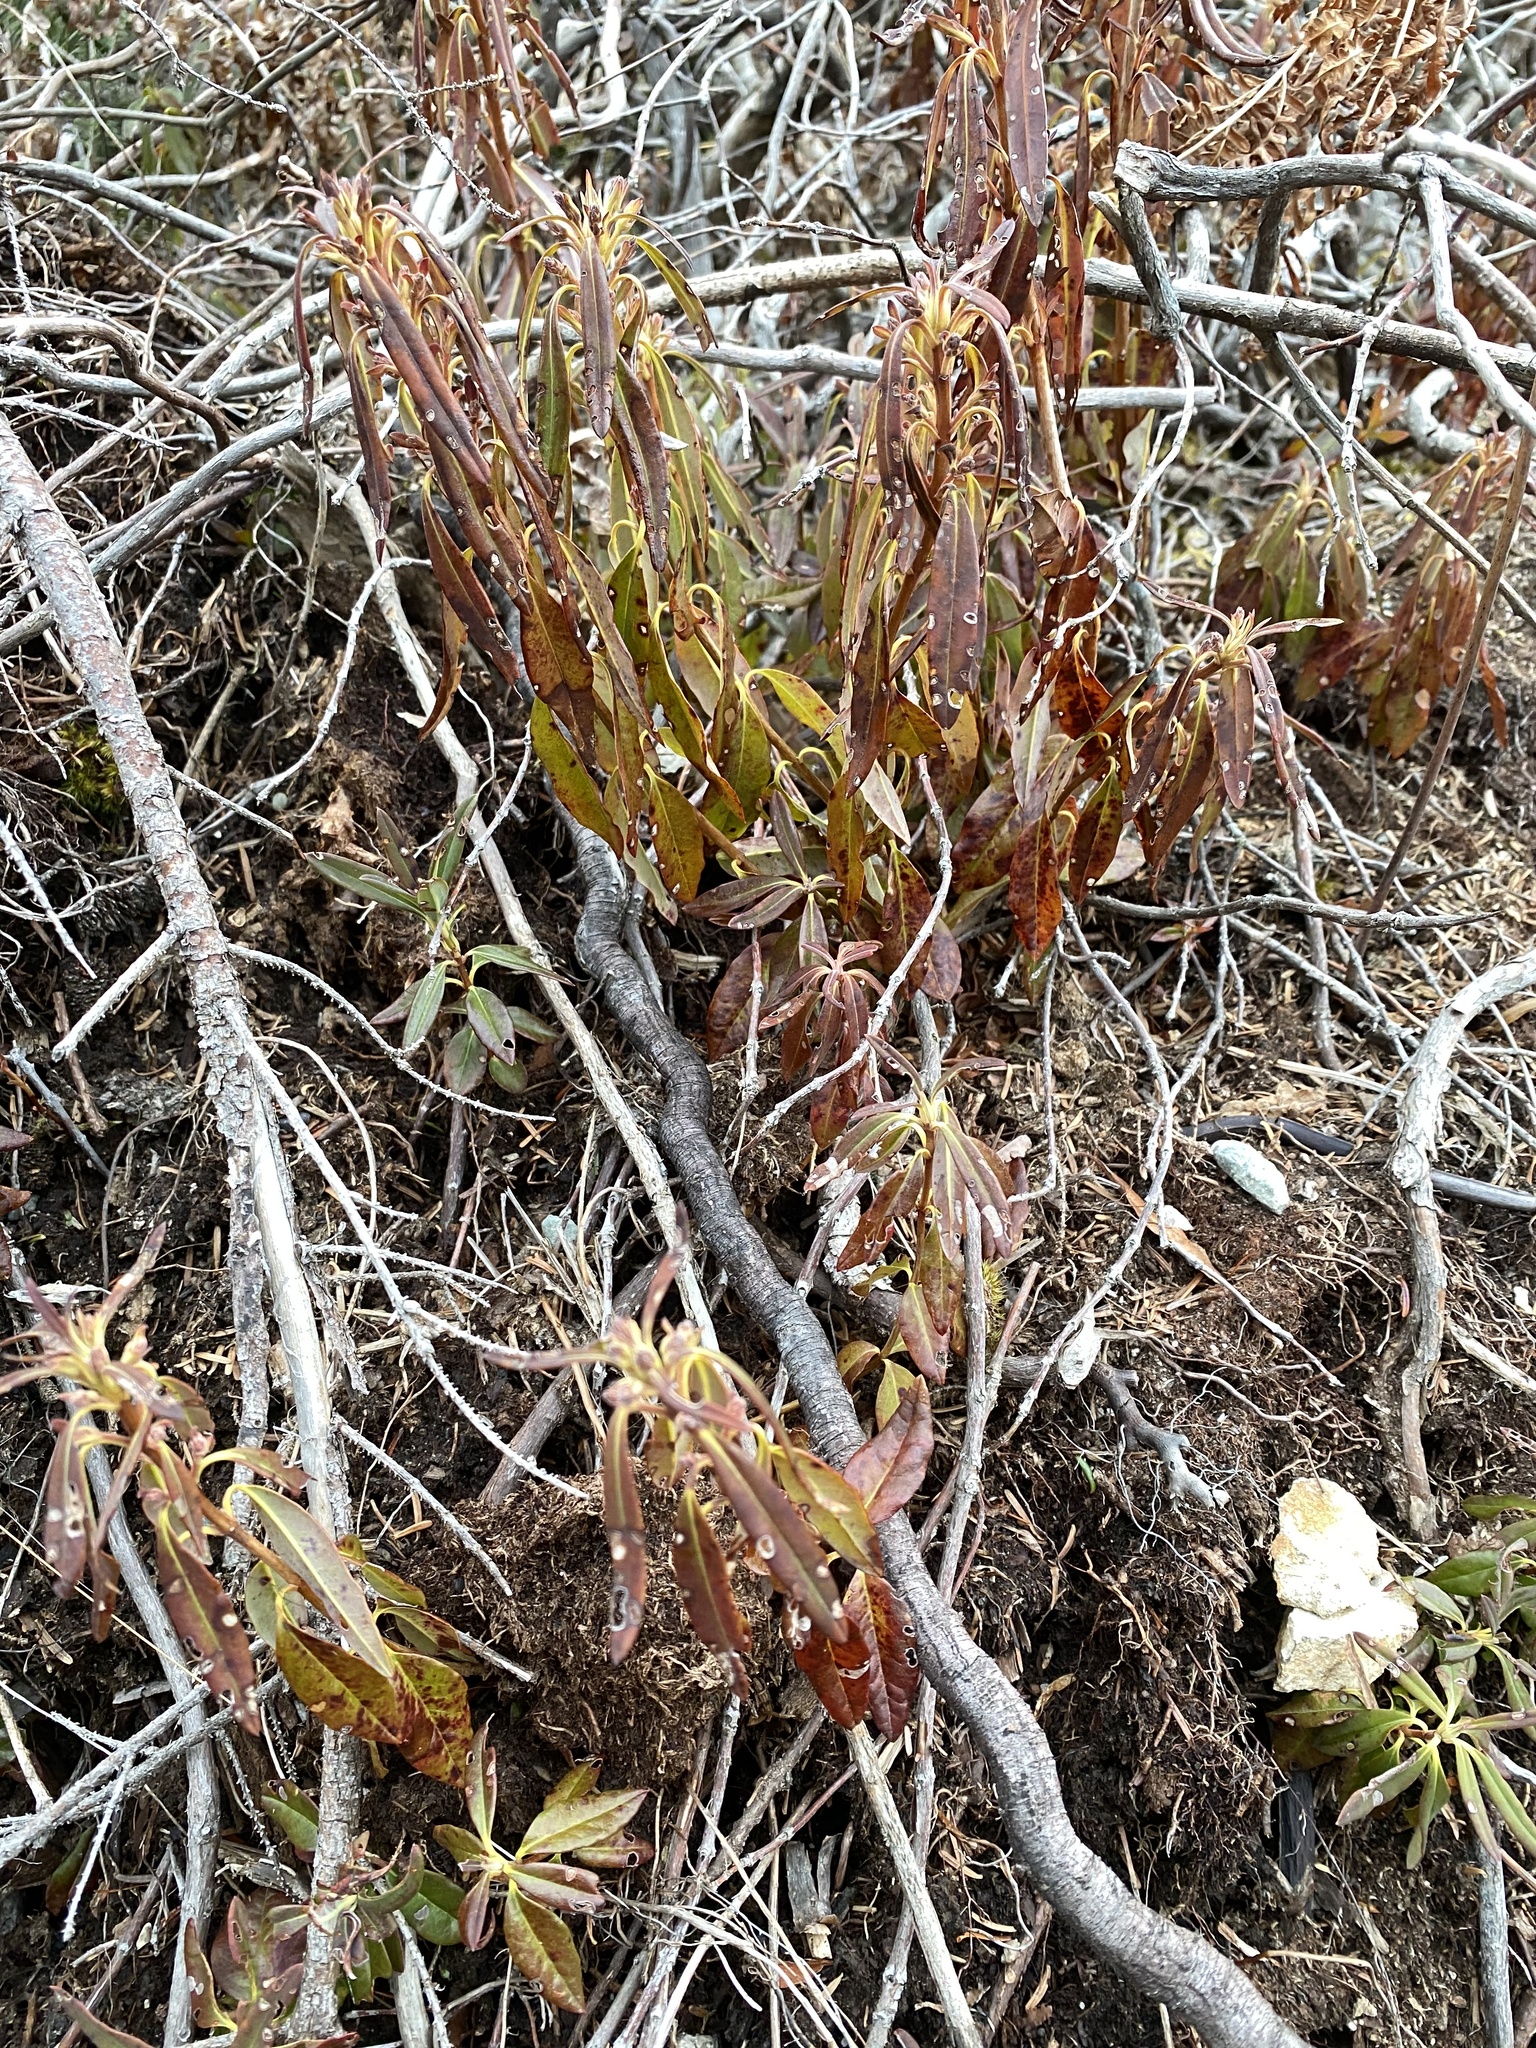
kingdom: Plantae
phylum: Tracheophyta
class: Magnoliopsida
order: Ericales
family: Ericaceae
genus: Kalmia
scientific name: Kalmia angustifolia
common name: Sheep-laurel
